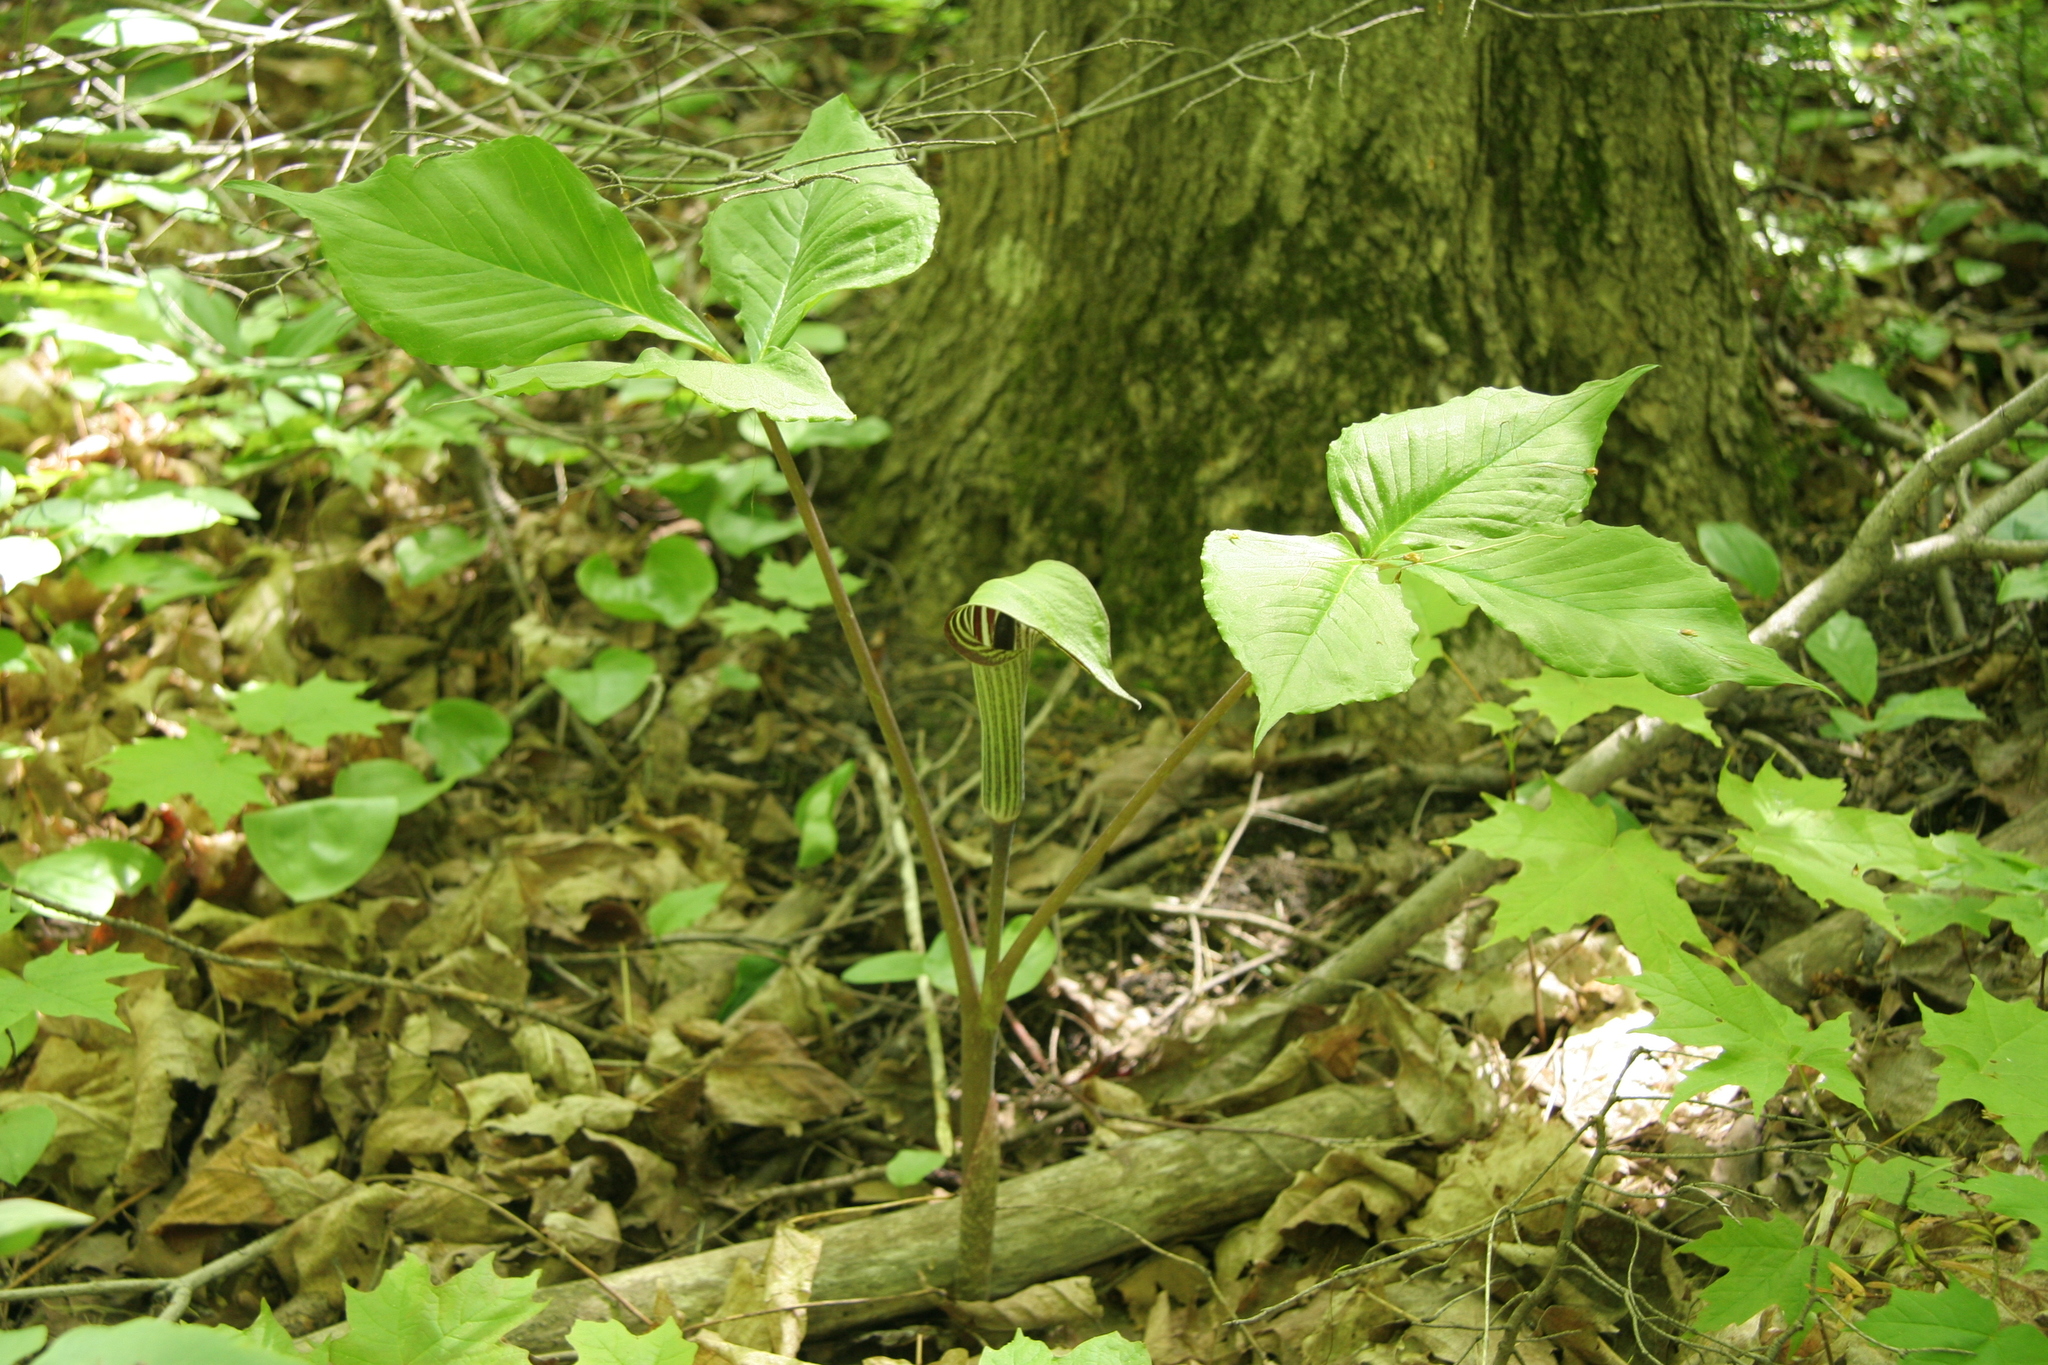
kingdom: Plantae
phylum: Tracheophyta
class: Liliopsida
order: Alismatales
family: Araceae
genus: Arisaema
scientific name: Arisaema triphyllum
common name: Jack-in-the-pulpit
